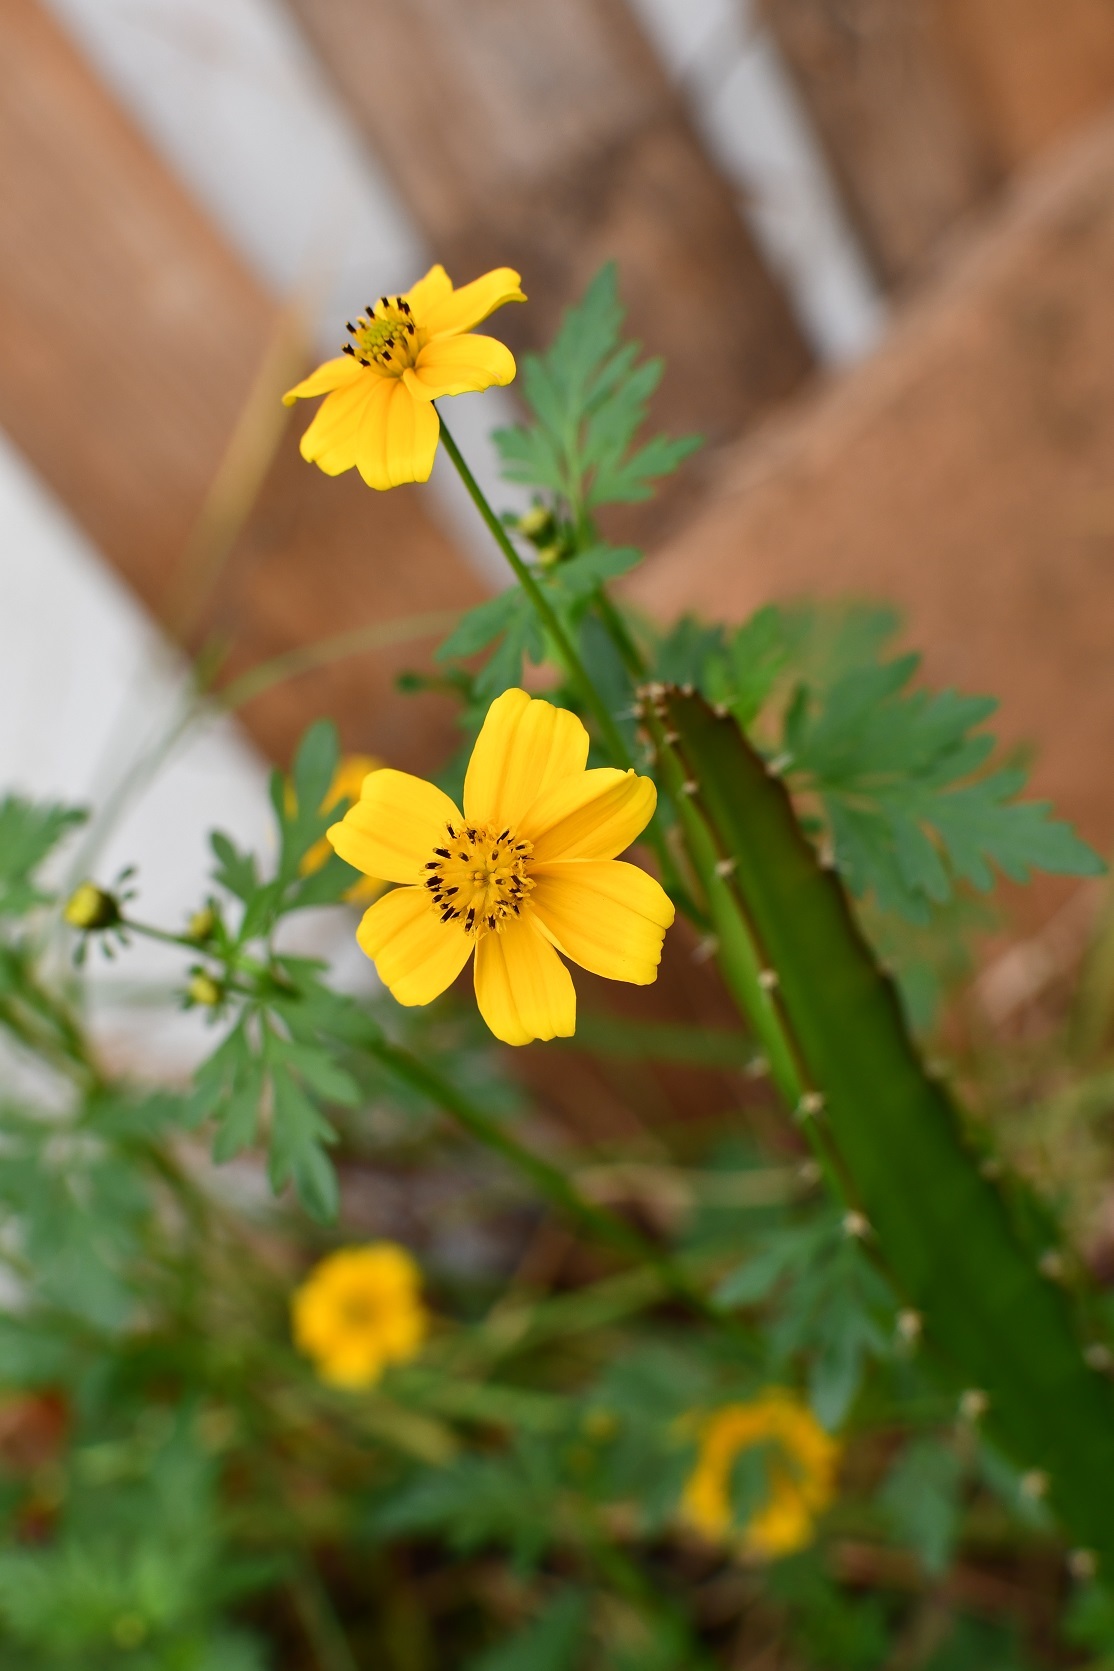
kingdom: Plantae
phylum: Tracheophyta
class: Magnoliopsida
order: Asterales
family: Asteraceae
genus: Bidens
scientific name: Bidens ballsii
